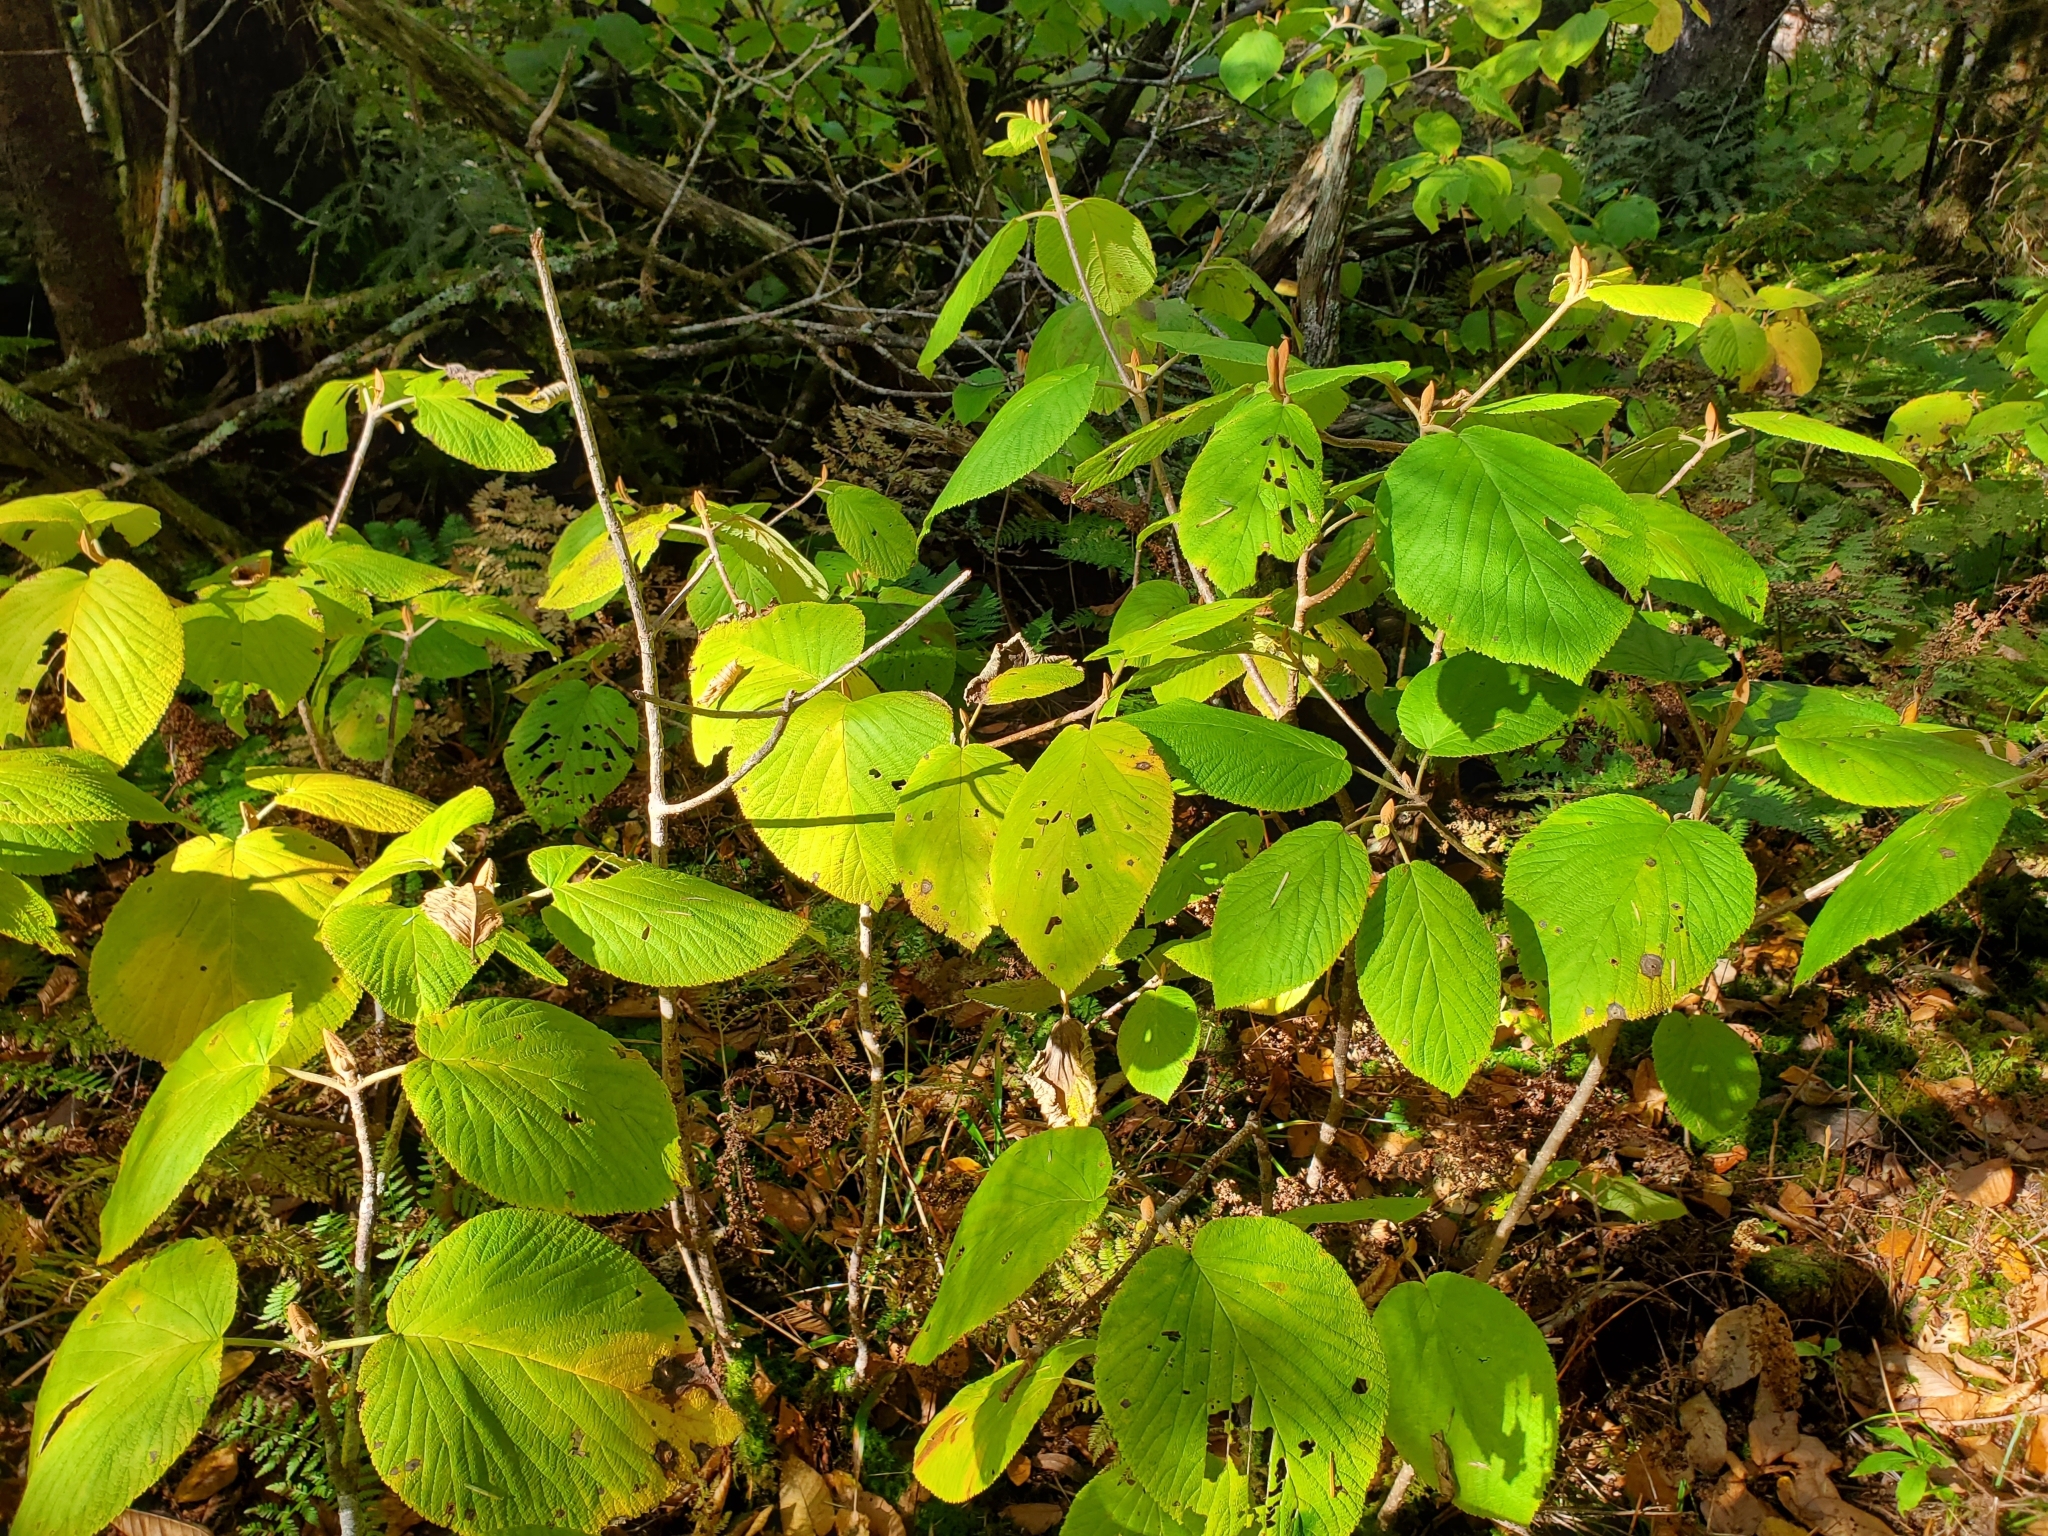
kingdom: Plantae
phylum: Tracheophyta
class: Magnoliopsida
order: Dipsacales
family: Viburnaceae
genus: Viburnum
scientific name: Viburnum lantanoides
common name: Hobblebush
